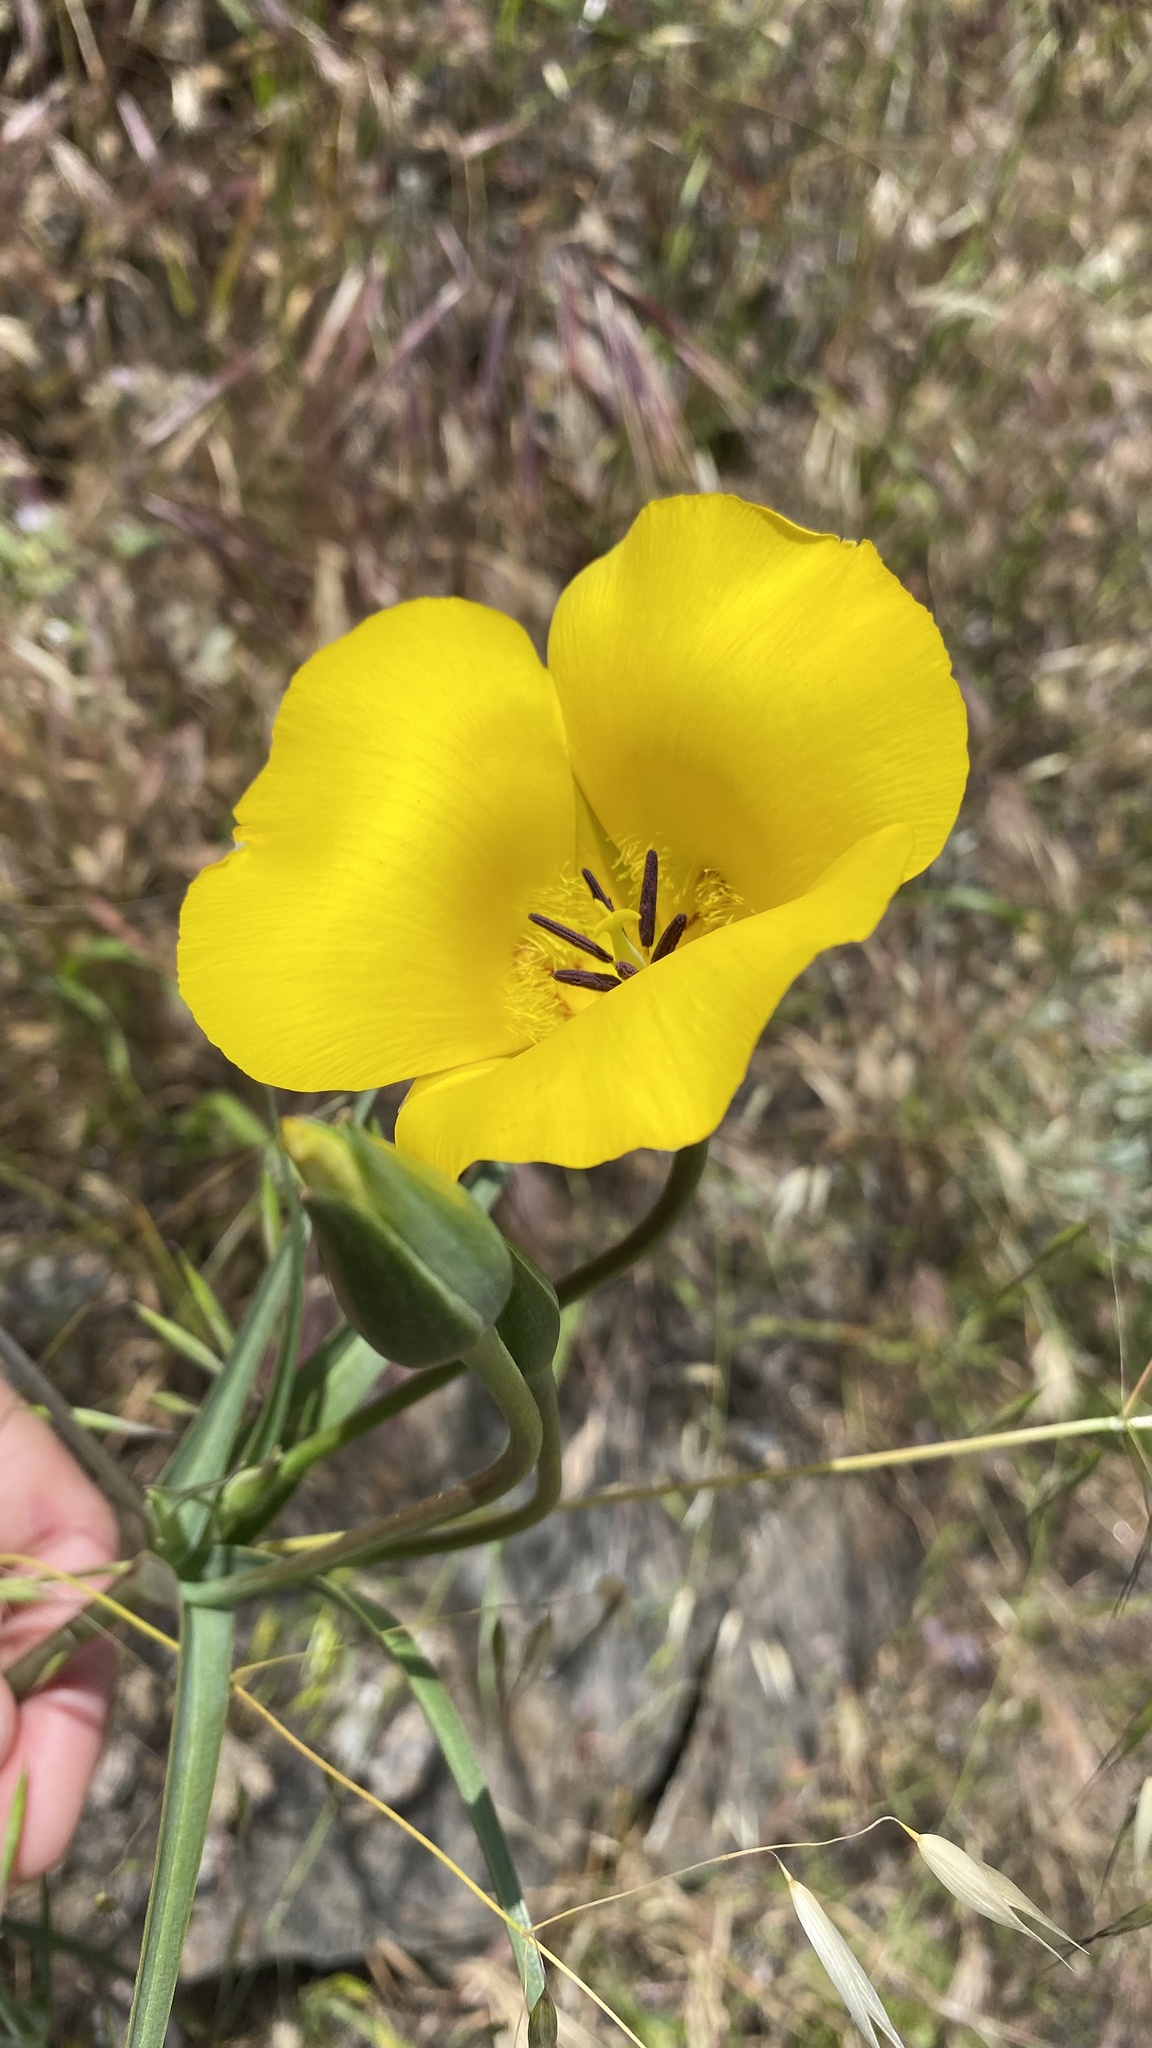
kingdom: Plantae
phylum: Tracheophyta
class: Liliopsida
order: Liliales
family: Liliaceae
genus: Calochortus
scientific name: Calochortus clavatus
